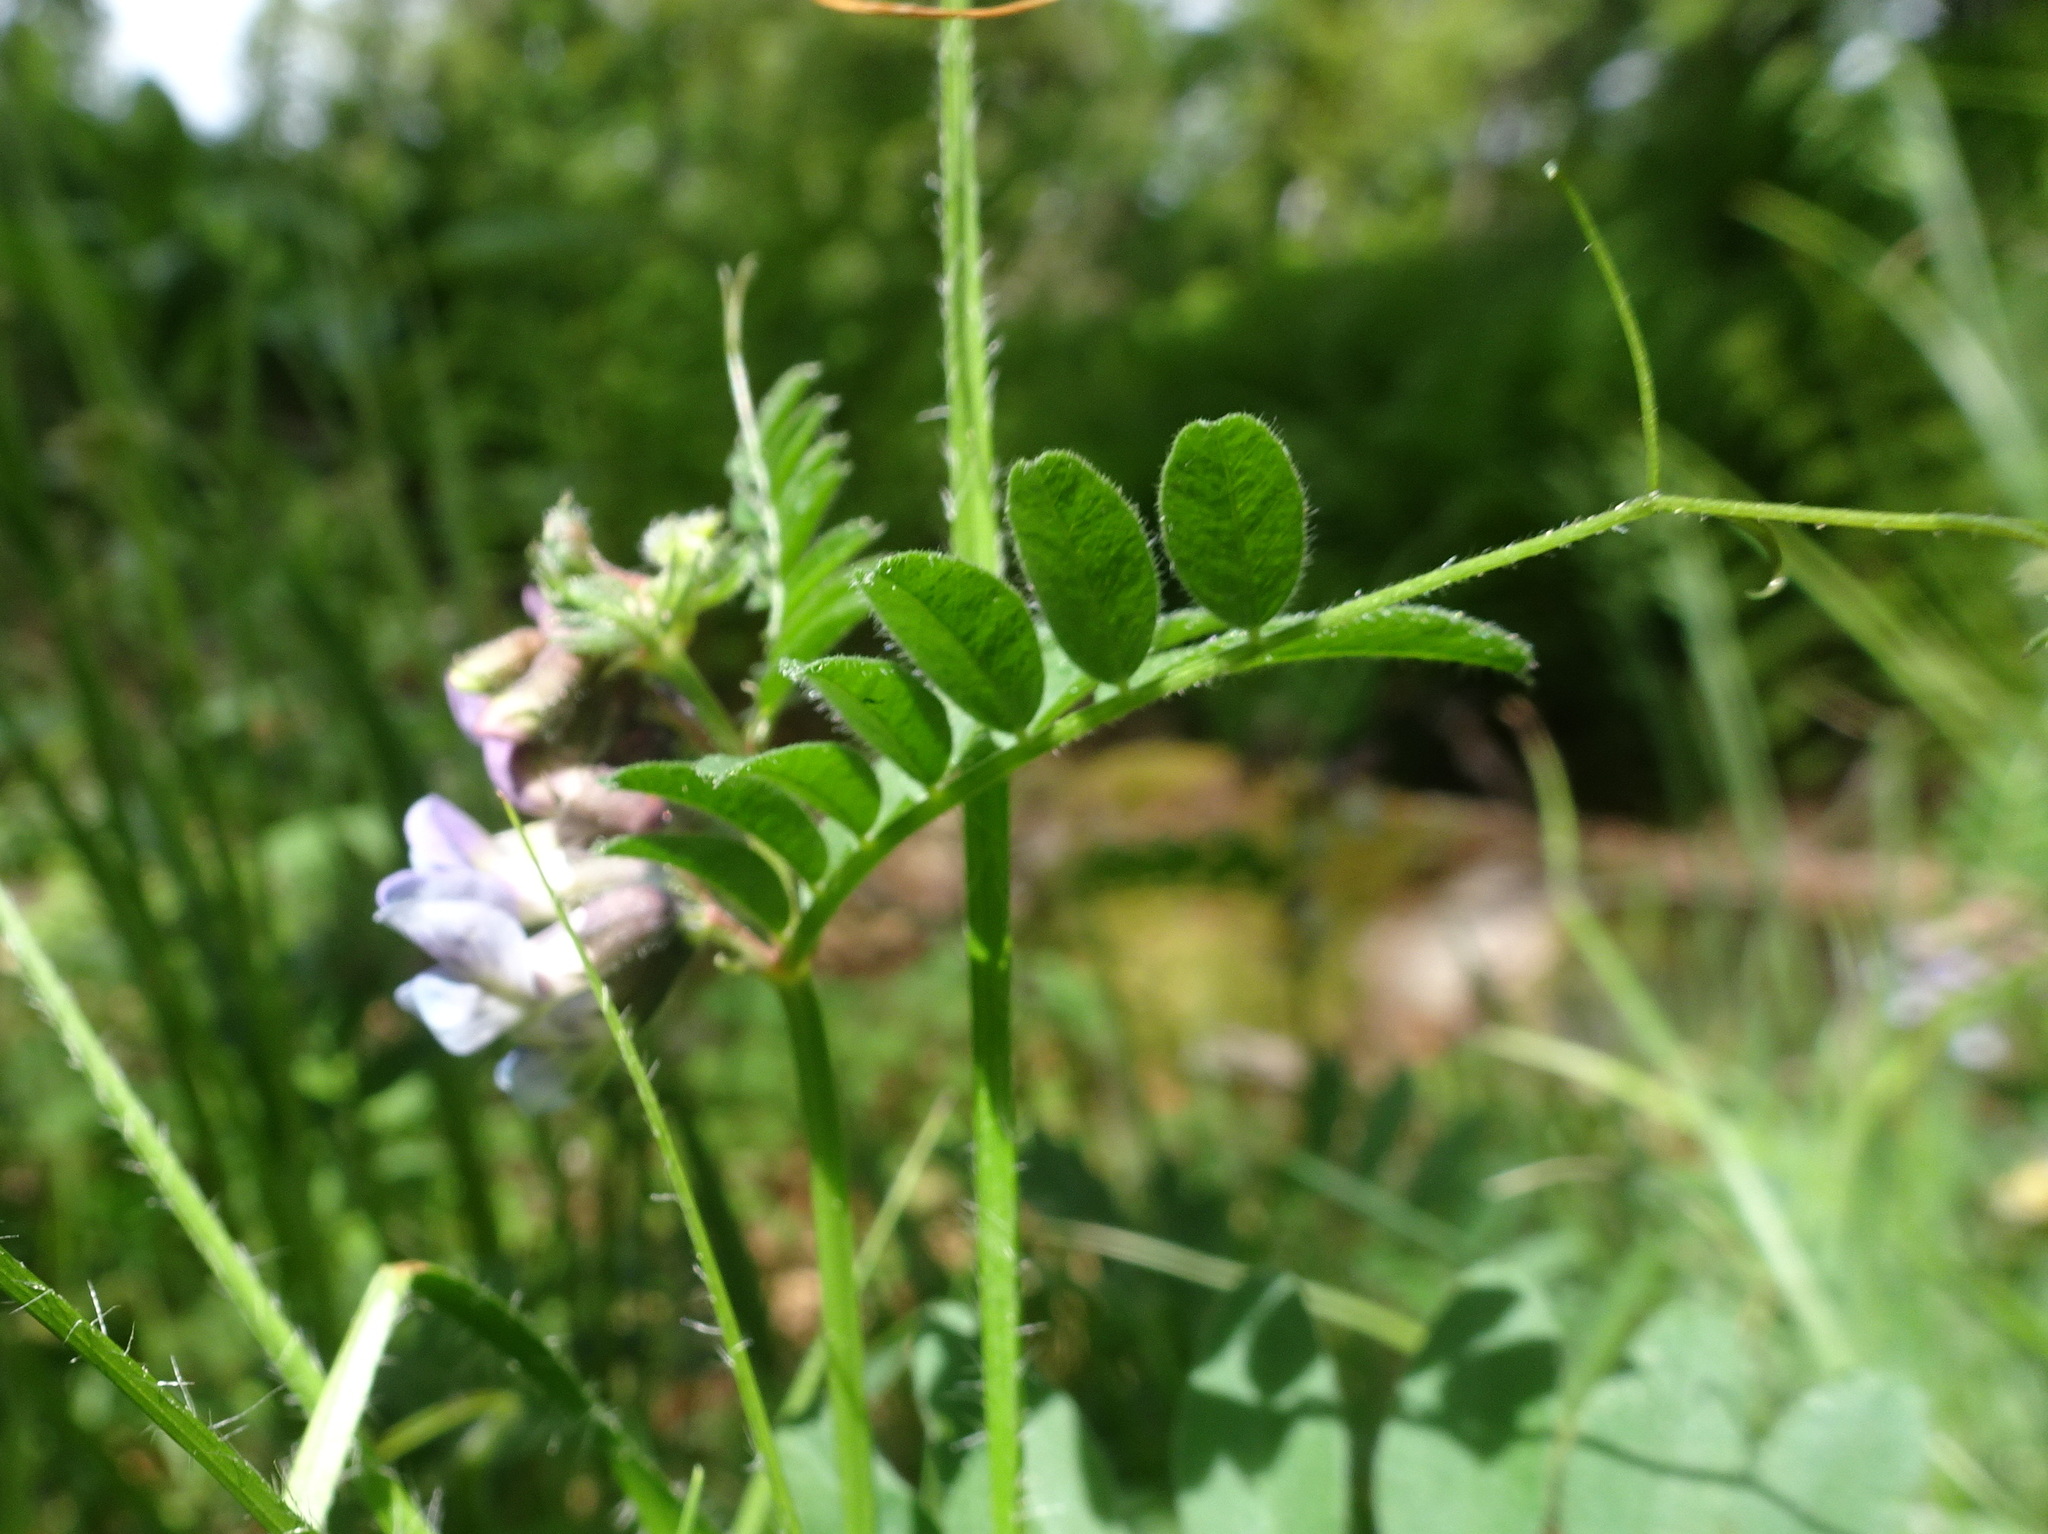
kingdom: Plantae
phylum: Tracheophyta
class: Magnoliopsida
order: Fabales
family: Fabaceae
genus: Vicia
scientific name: Vicia sepium
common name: Bush vetch
